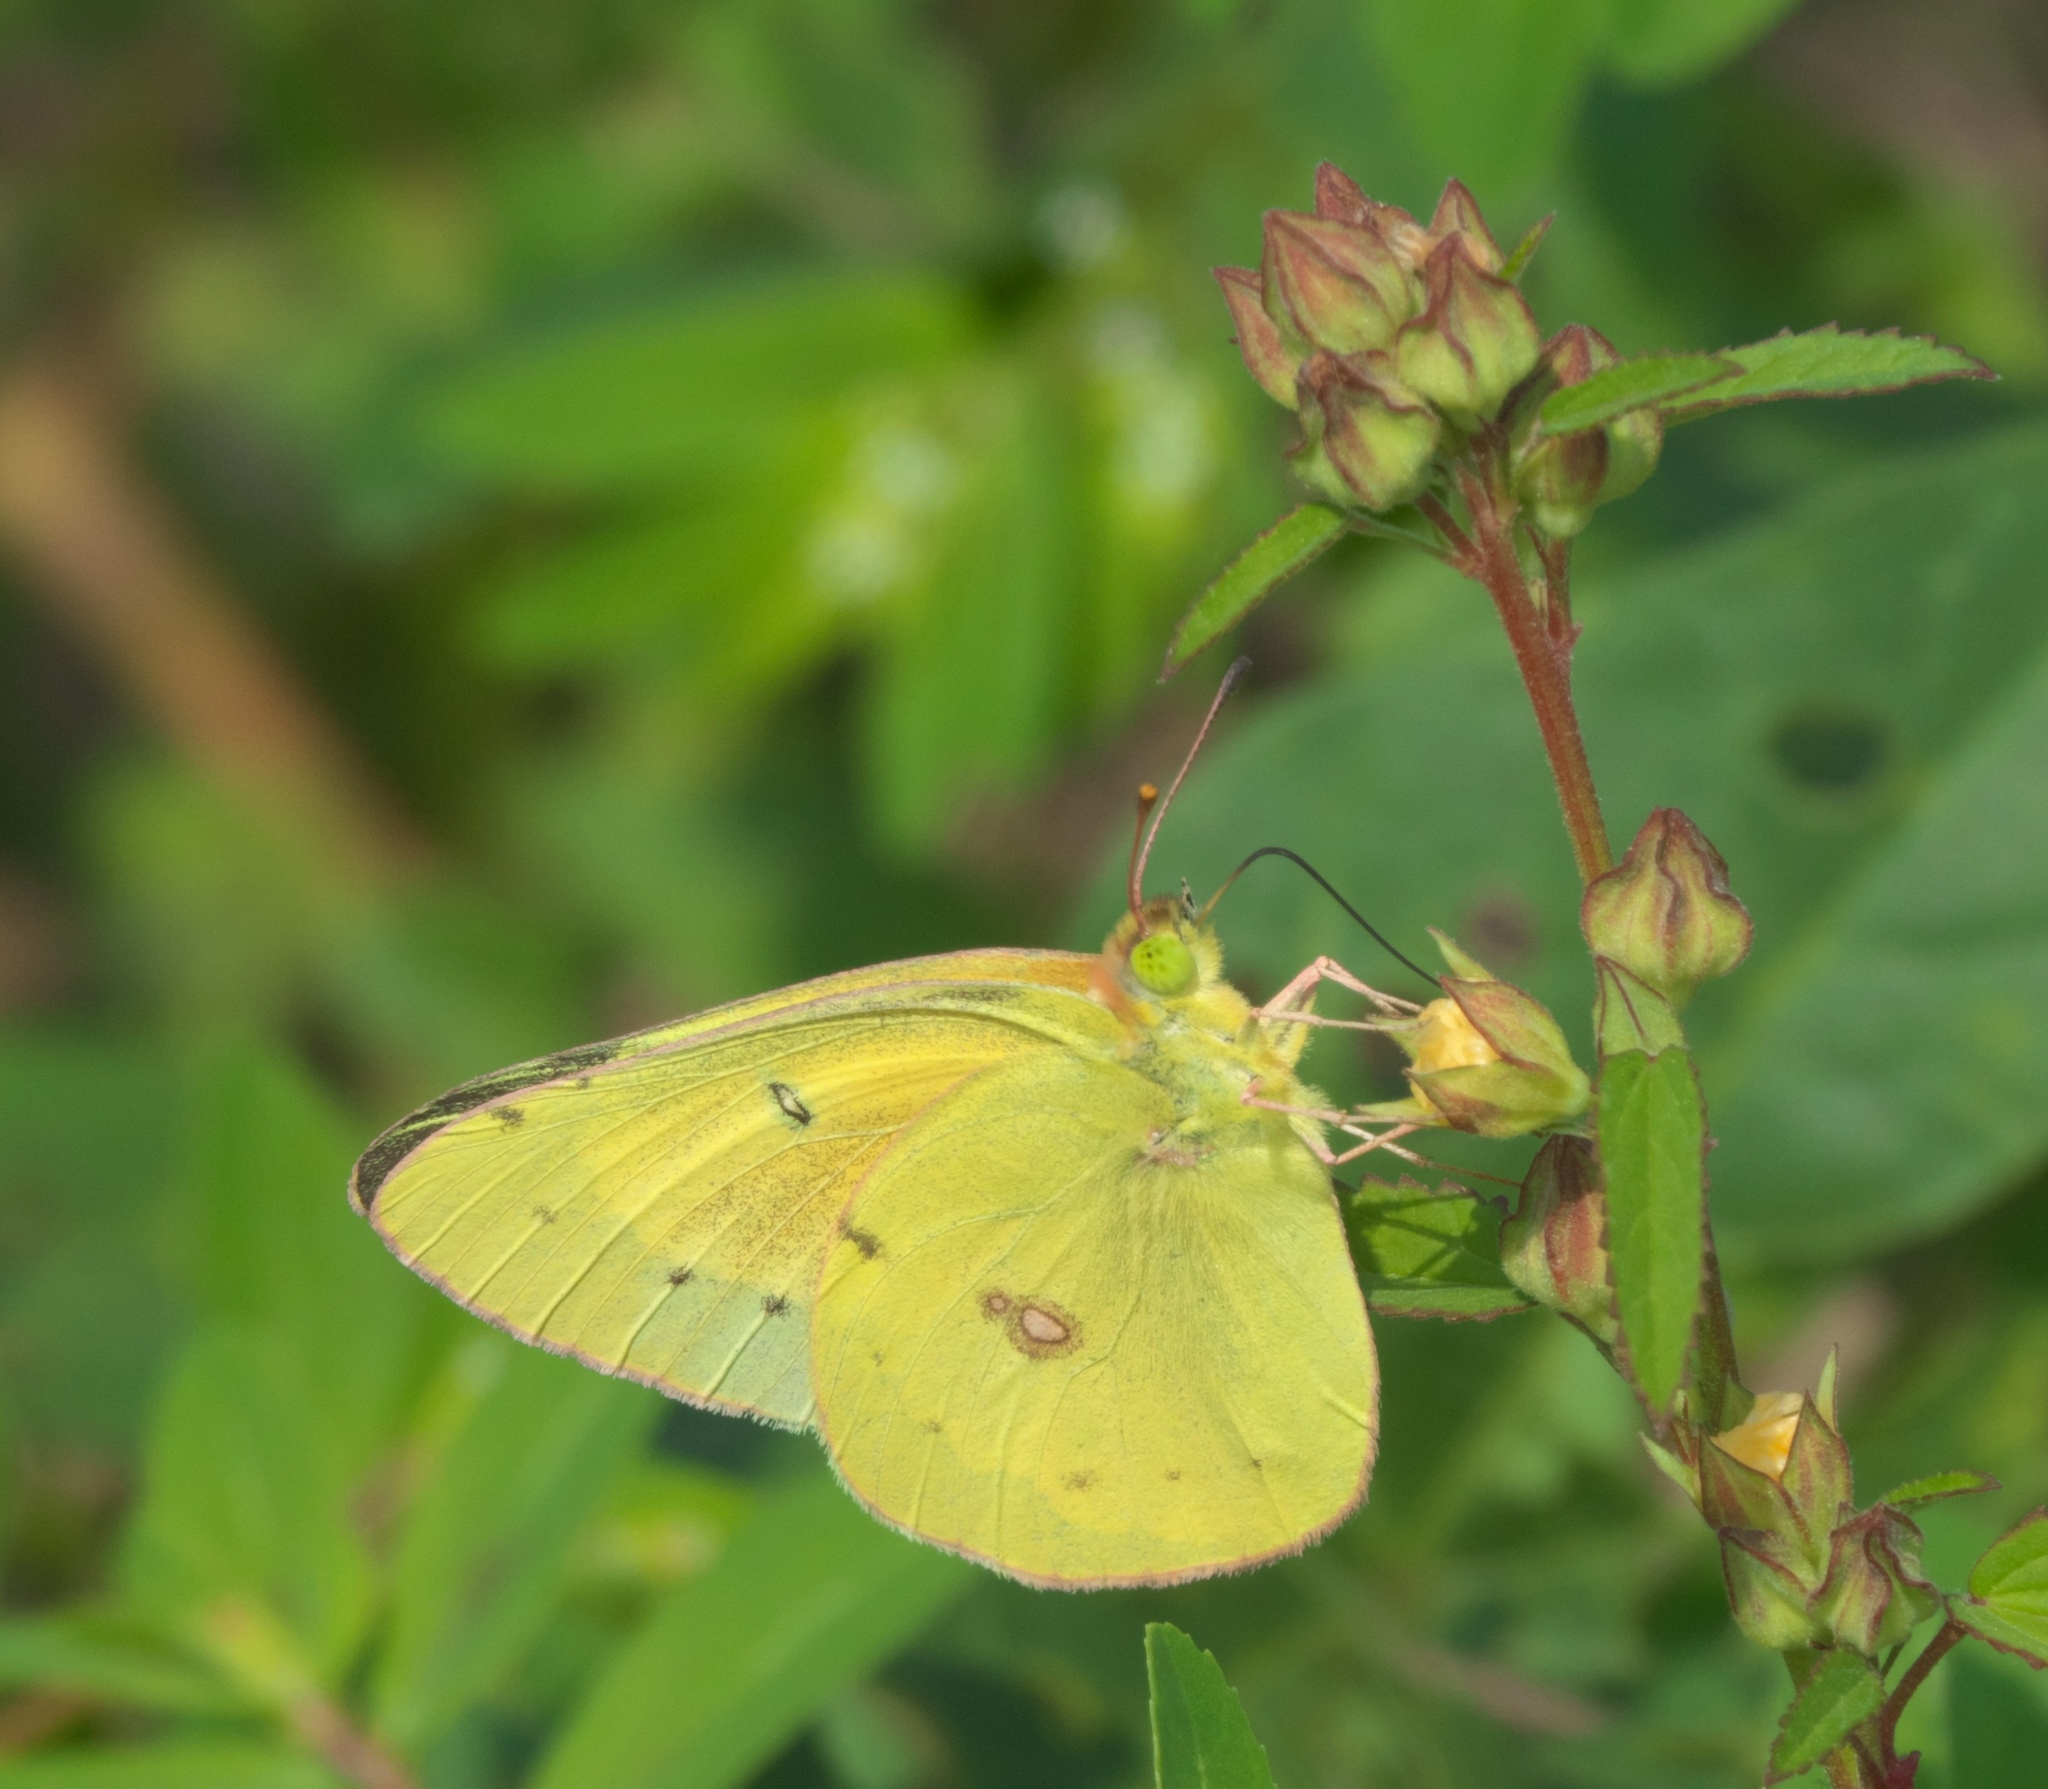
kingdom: Animalia
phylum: Arthropoda
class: Insecta
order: Lepidoptera
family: Pieridae
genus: Colias
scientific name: Colias philodice
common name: Clouded sulphur
